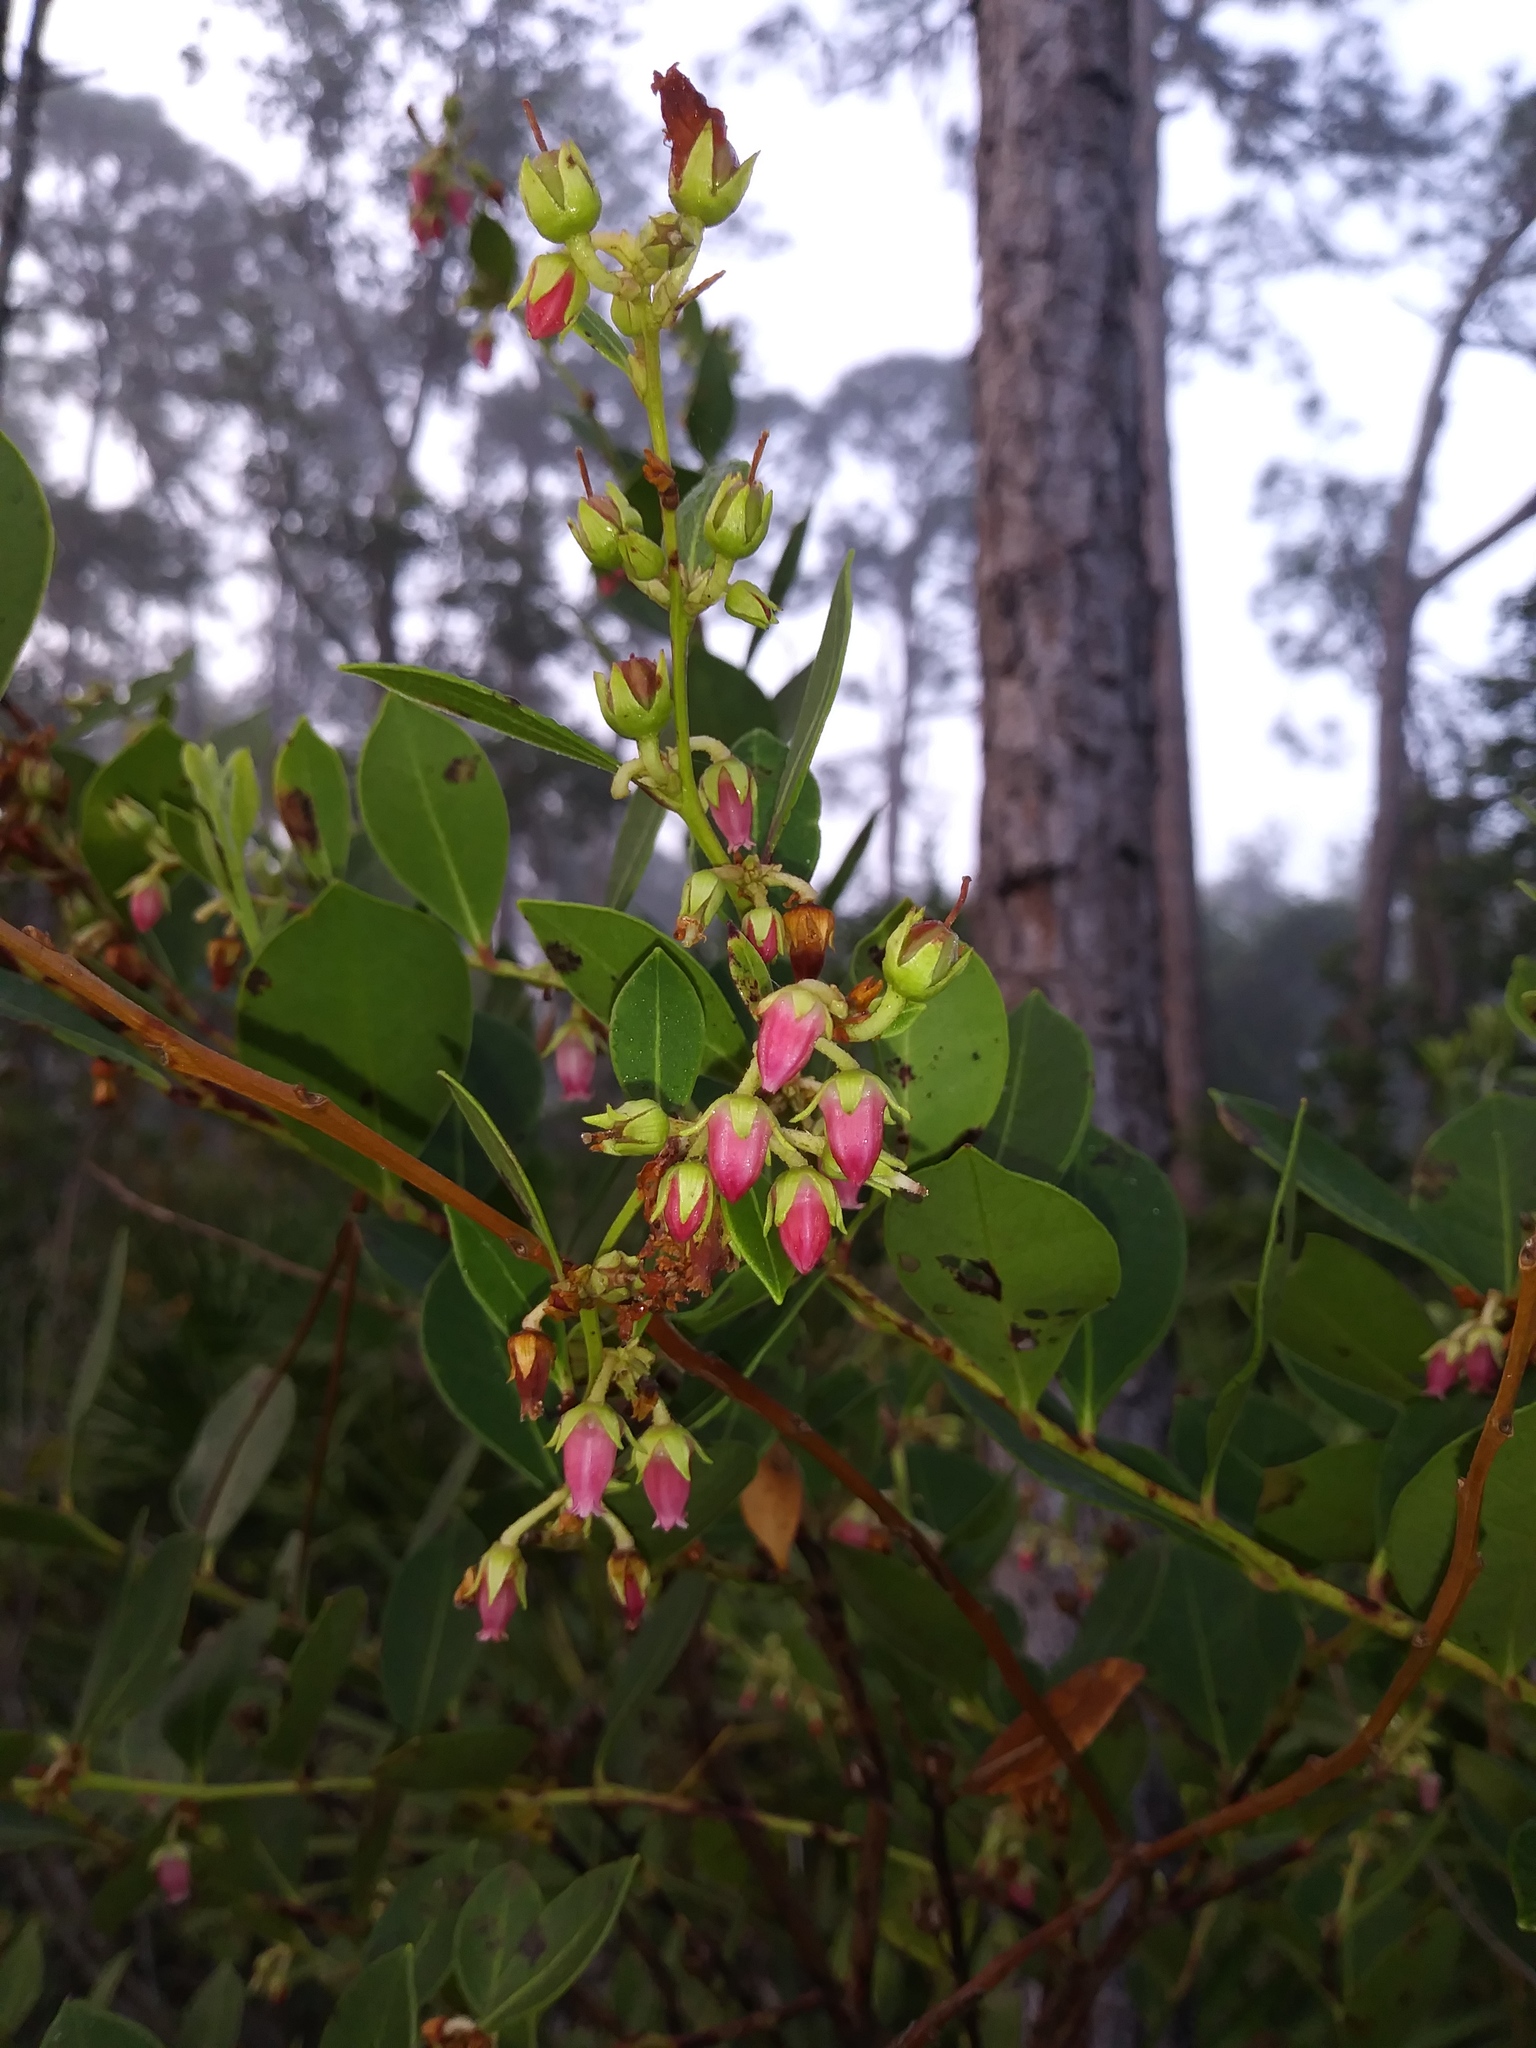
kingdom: Plantae
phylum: Tracheophyta
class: Magnoliopsida
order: Ericales
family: Ericaceae
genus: Lyonia
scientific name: Lyonia lucida
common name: Fetterbush
